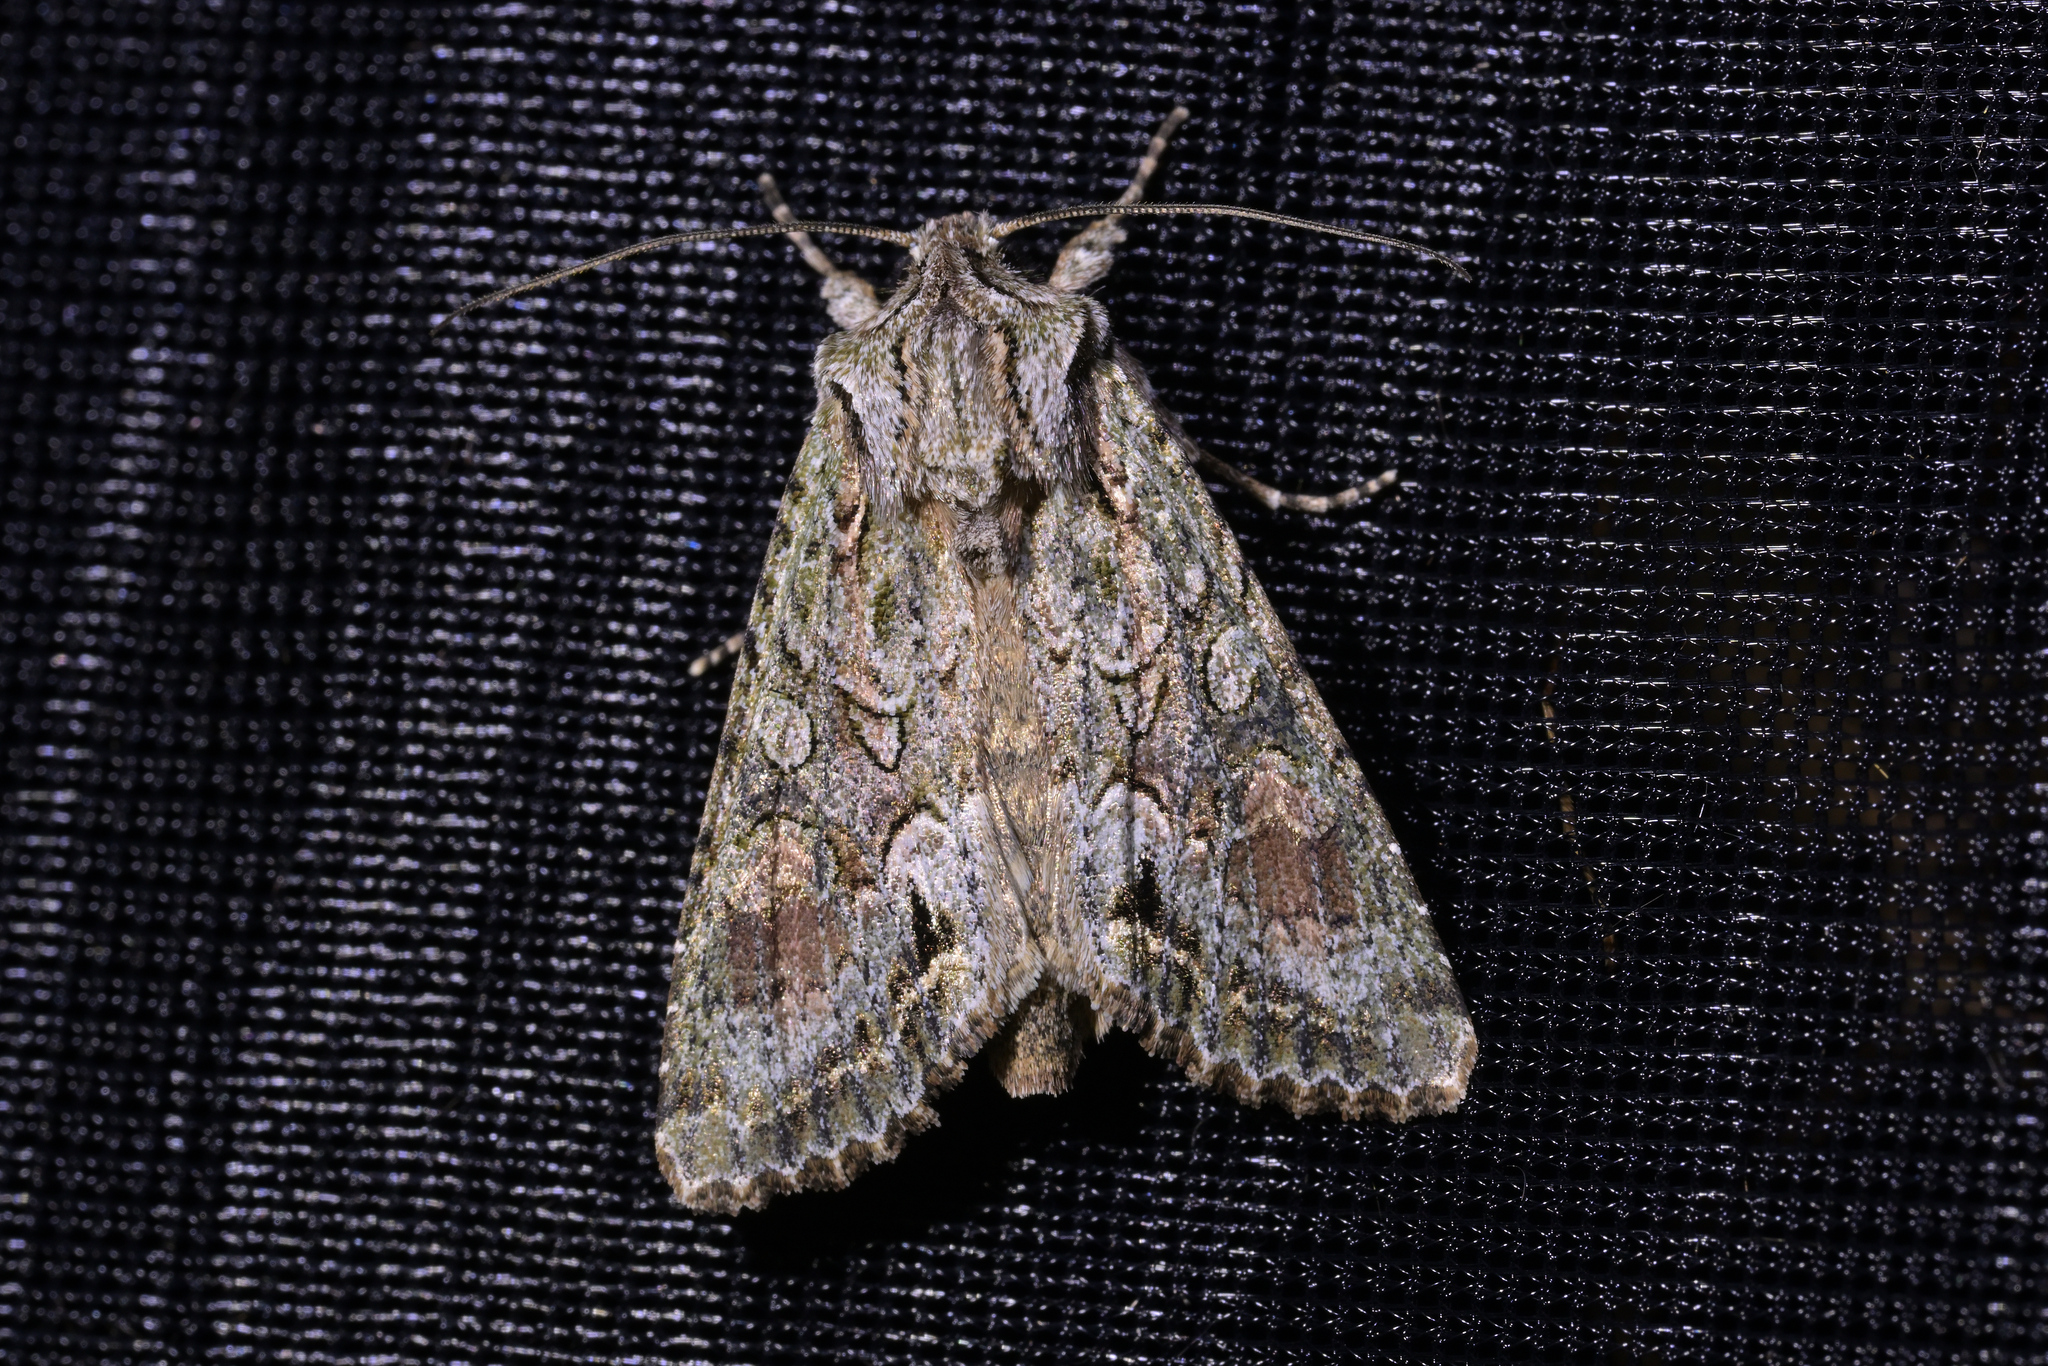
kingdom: Animalia
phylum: Arthropoda
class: Insecta
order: Lepidoptera
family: Noctuidae
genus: Ichneutica
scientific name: Ichneutica mutans
